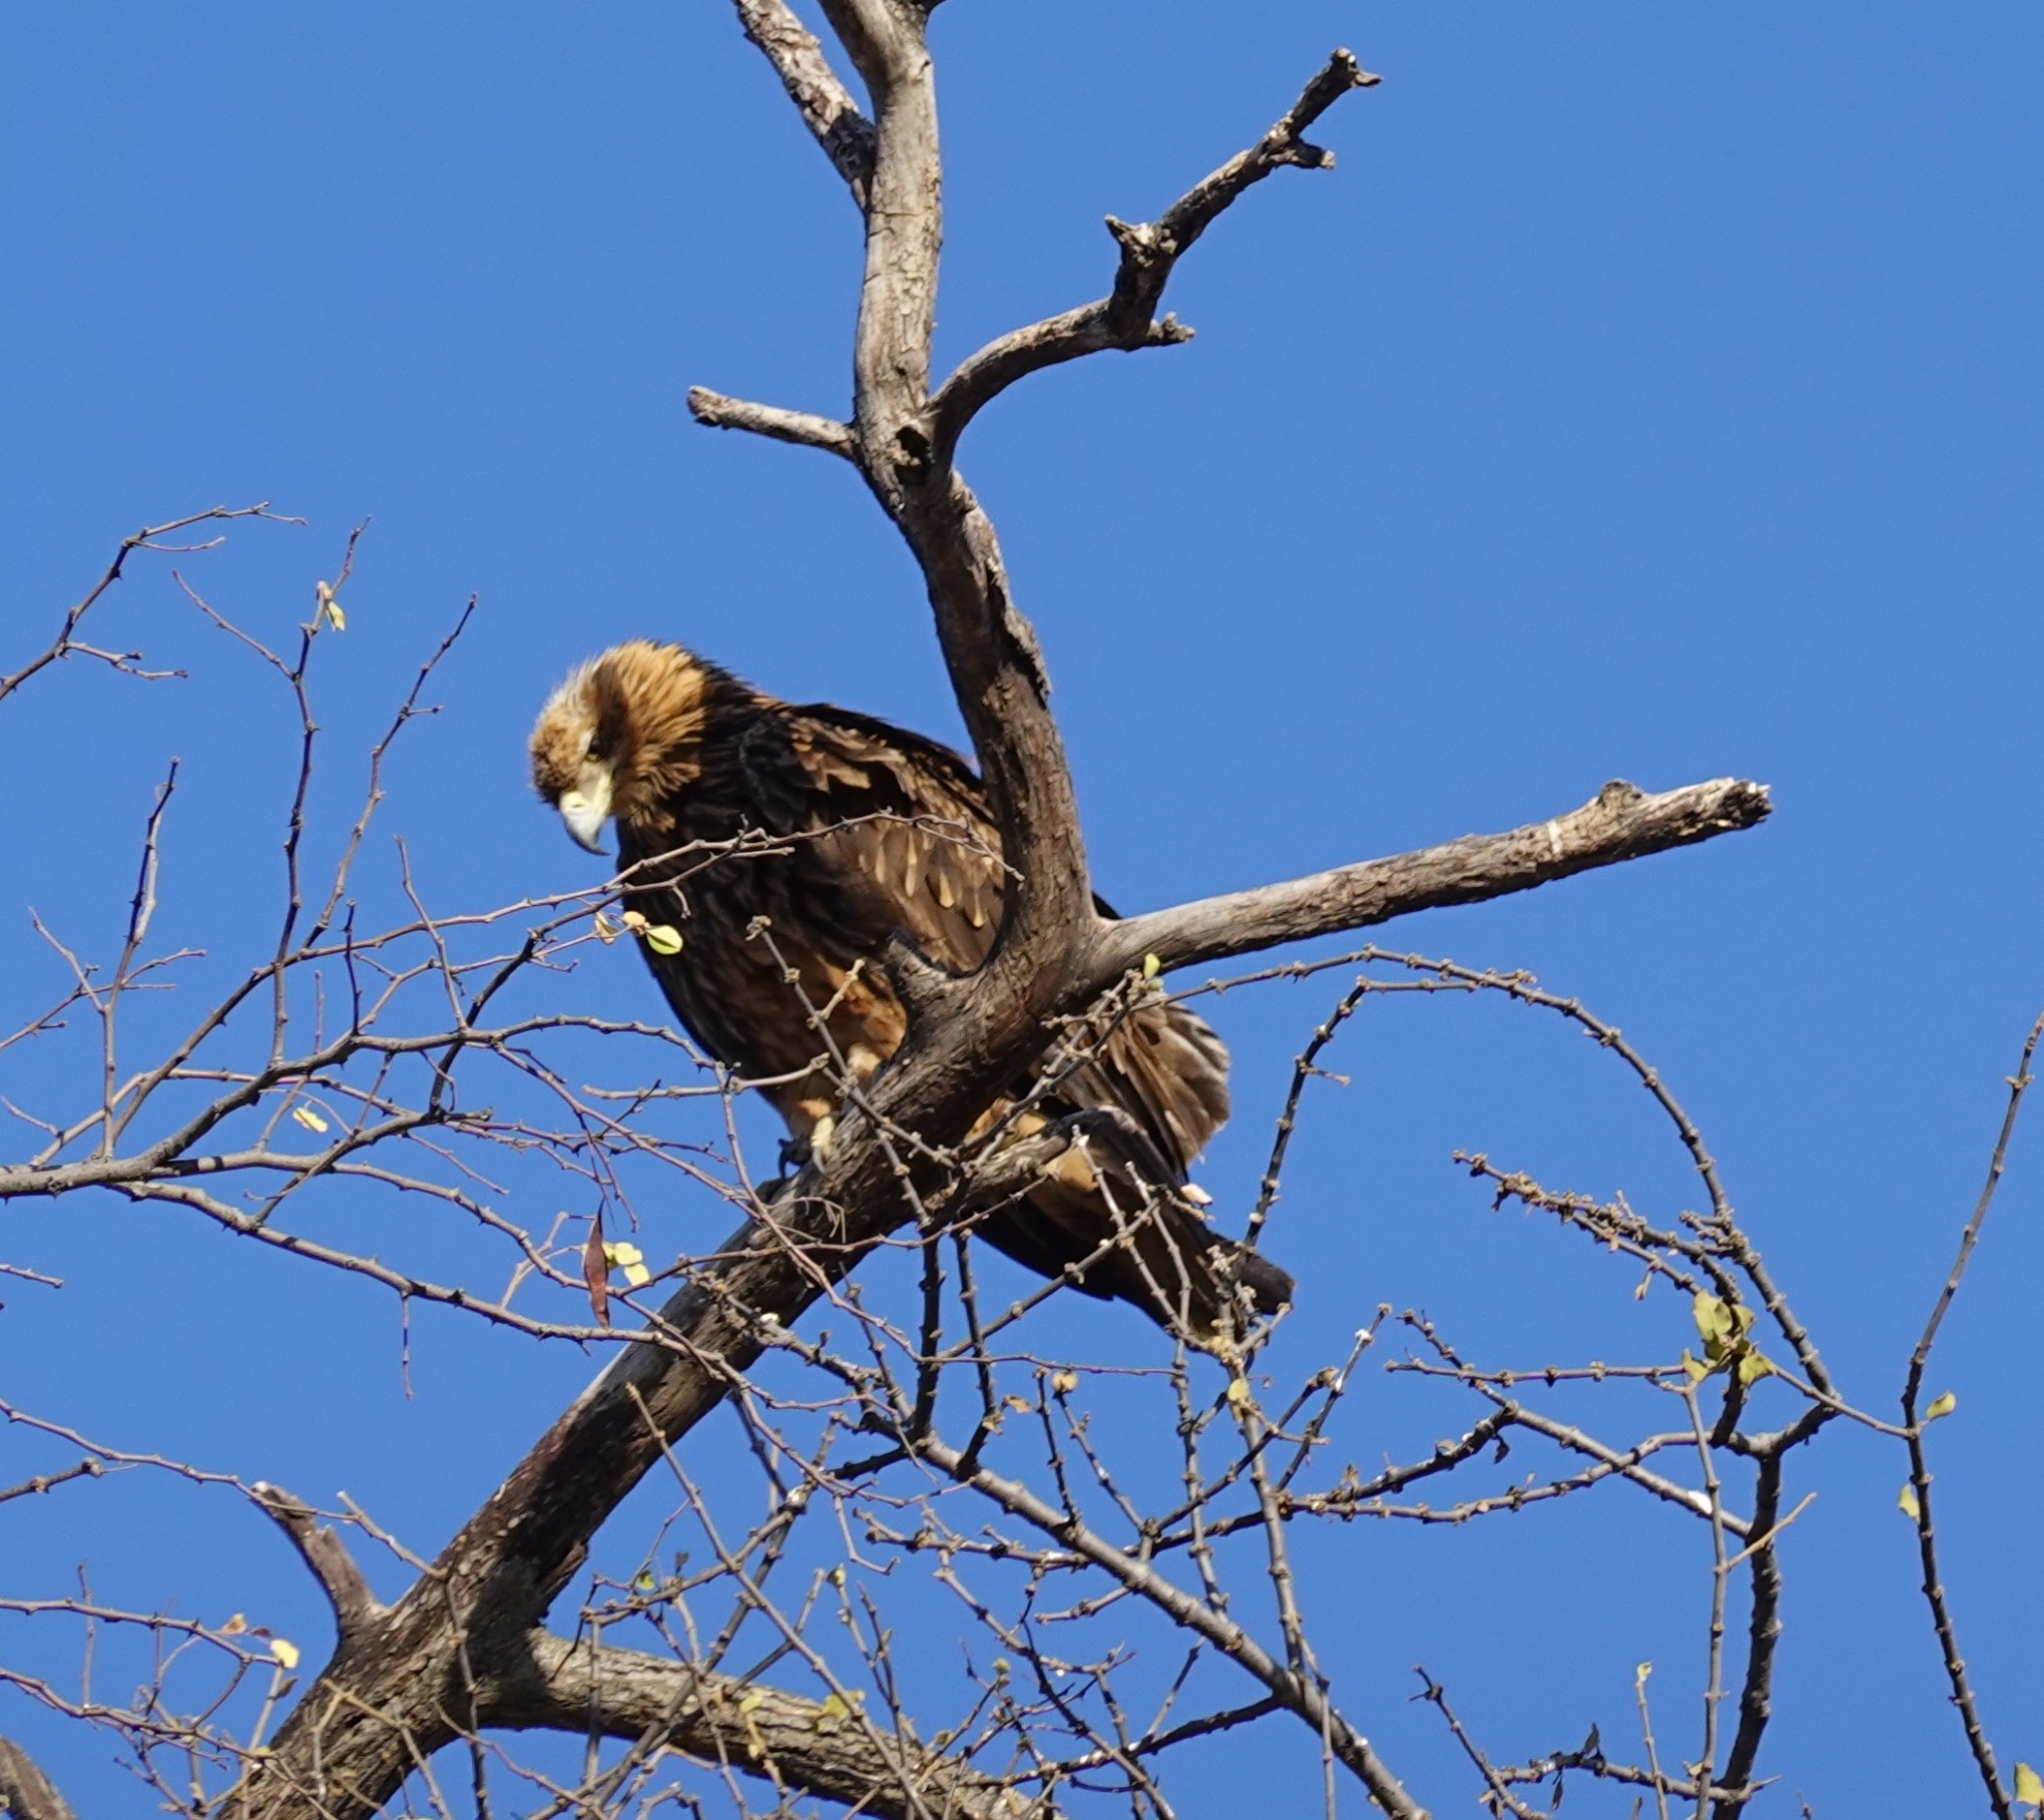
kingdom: Animalia
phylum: Chordata
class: Aves
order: Accipitriformes
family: Accipitridae
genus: Aquila
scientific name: Aquila rapax
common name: Tawny eagle
